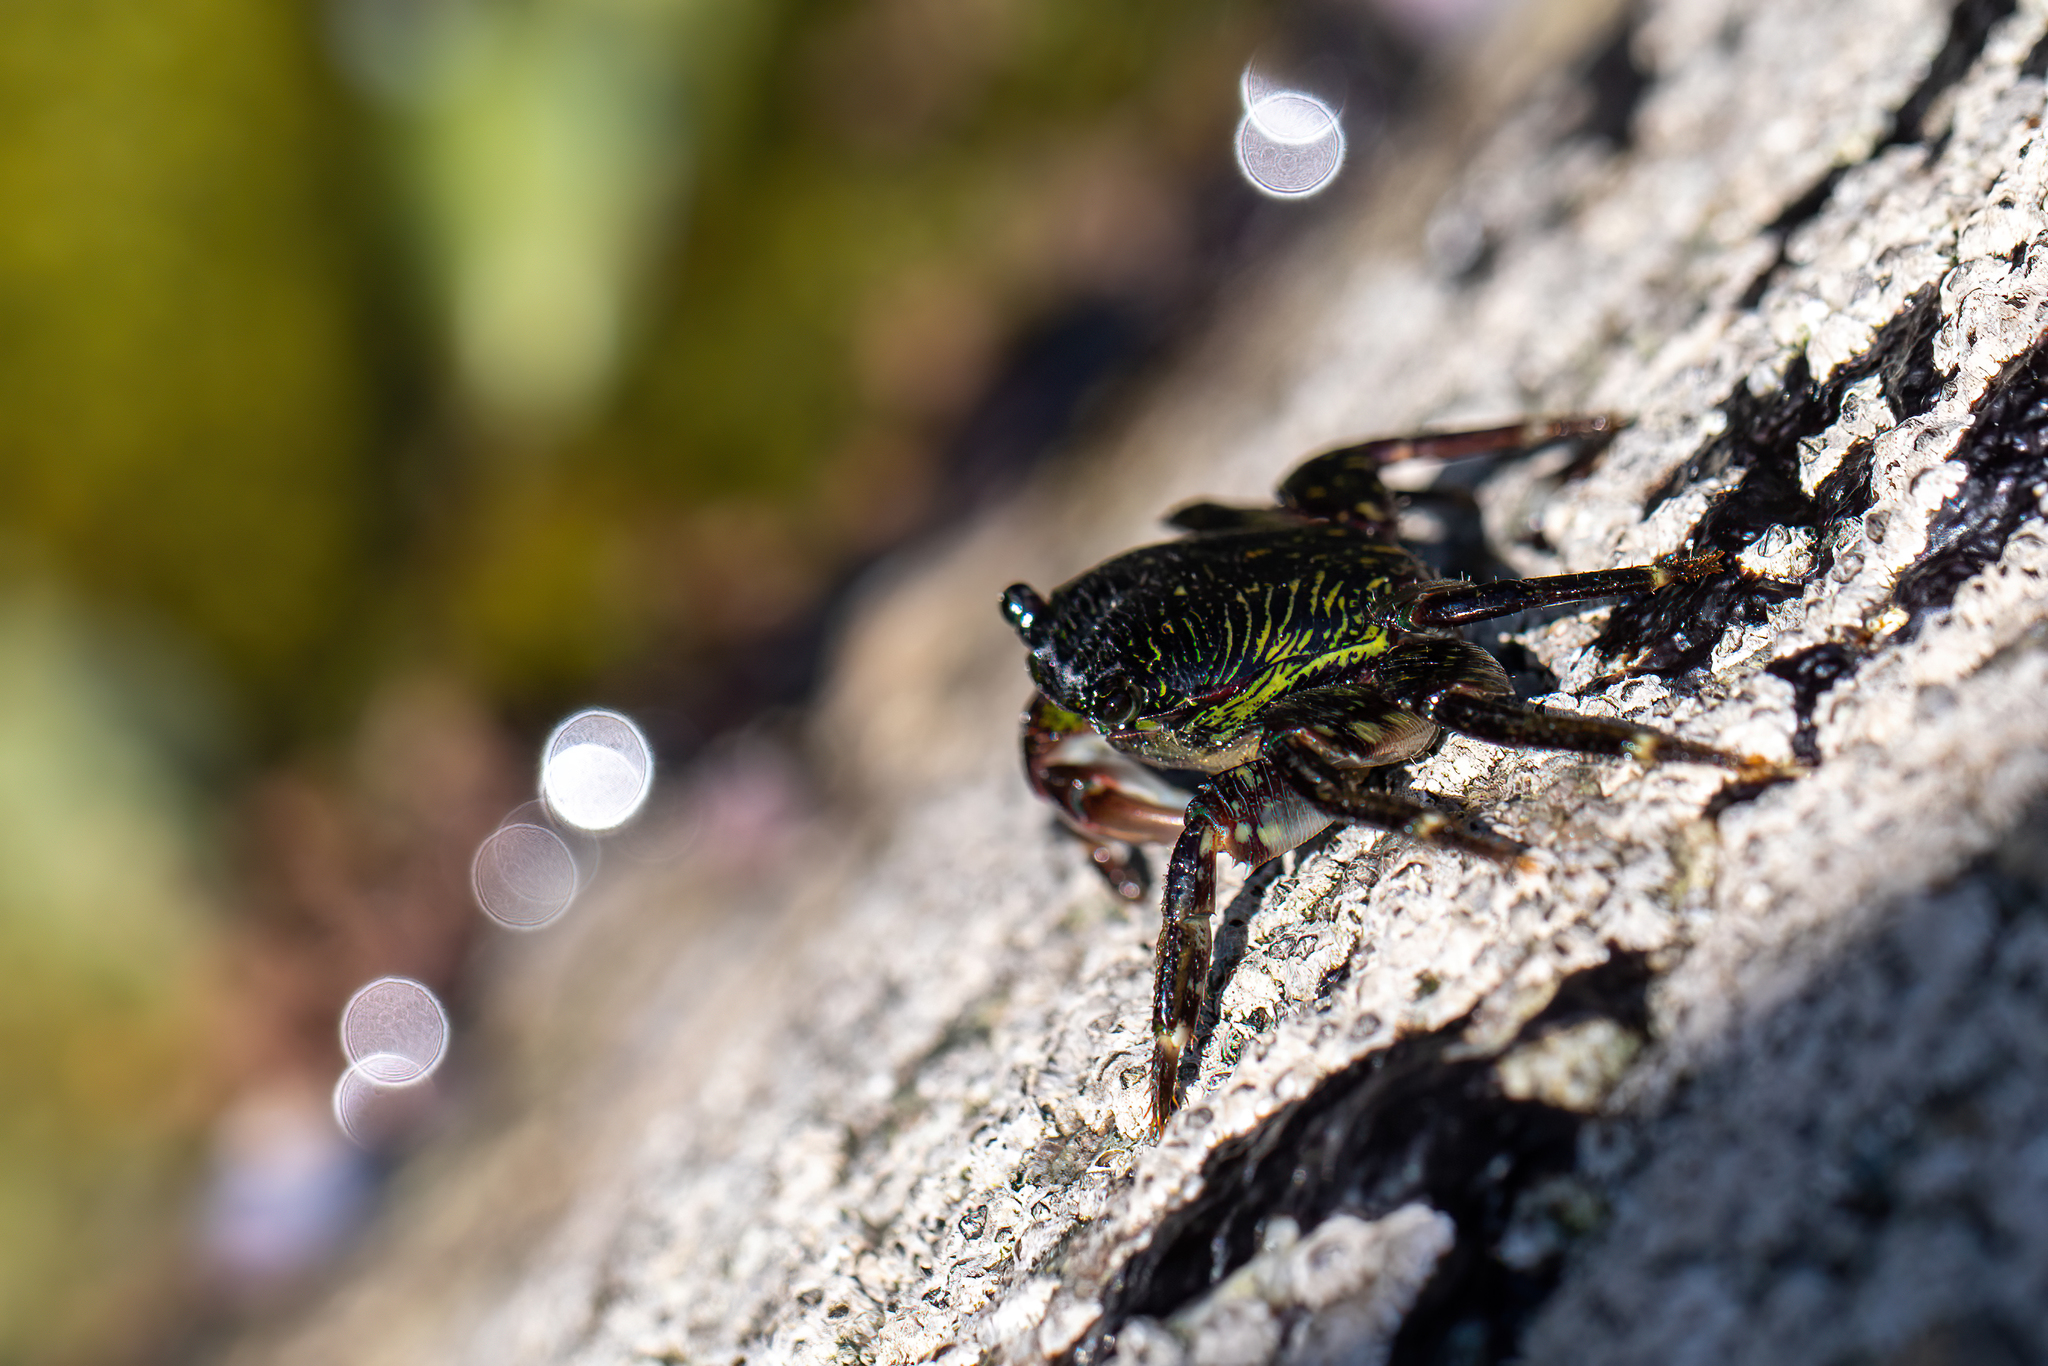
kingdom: Animalia
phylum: Arthropoda
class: Malacostraca
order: Decapoda
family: Grapsidae
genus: Pachygrapsus
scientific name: Pachygrapsus crassipes
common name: Striped shore crab
